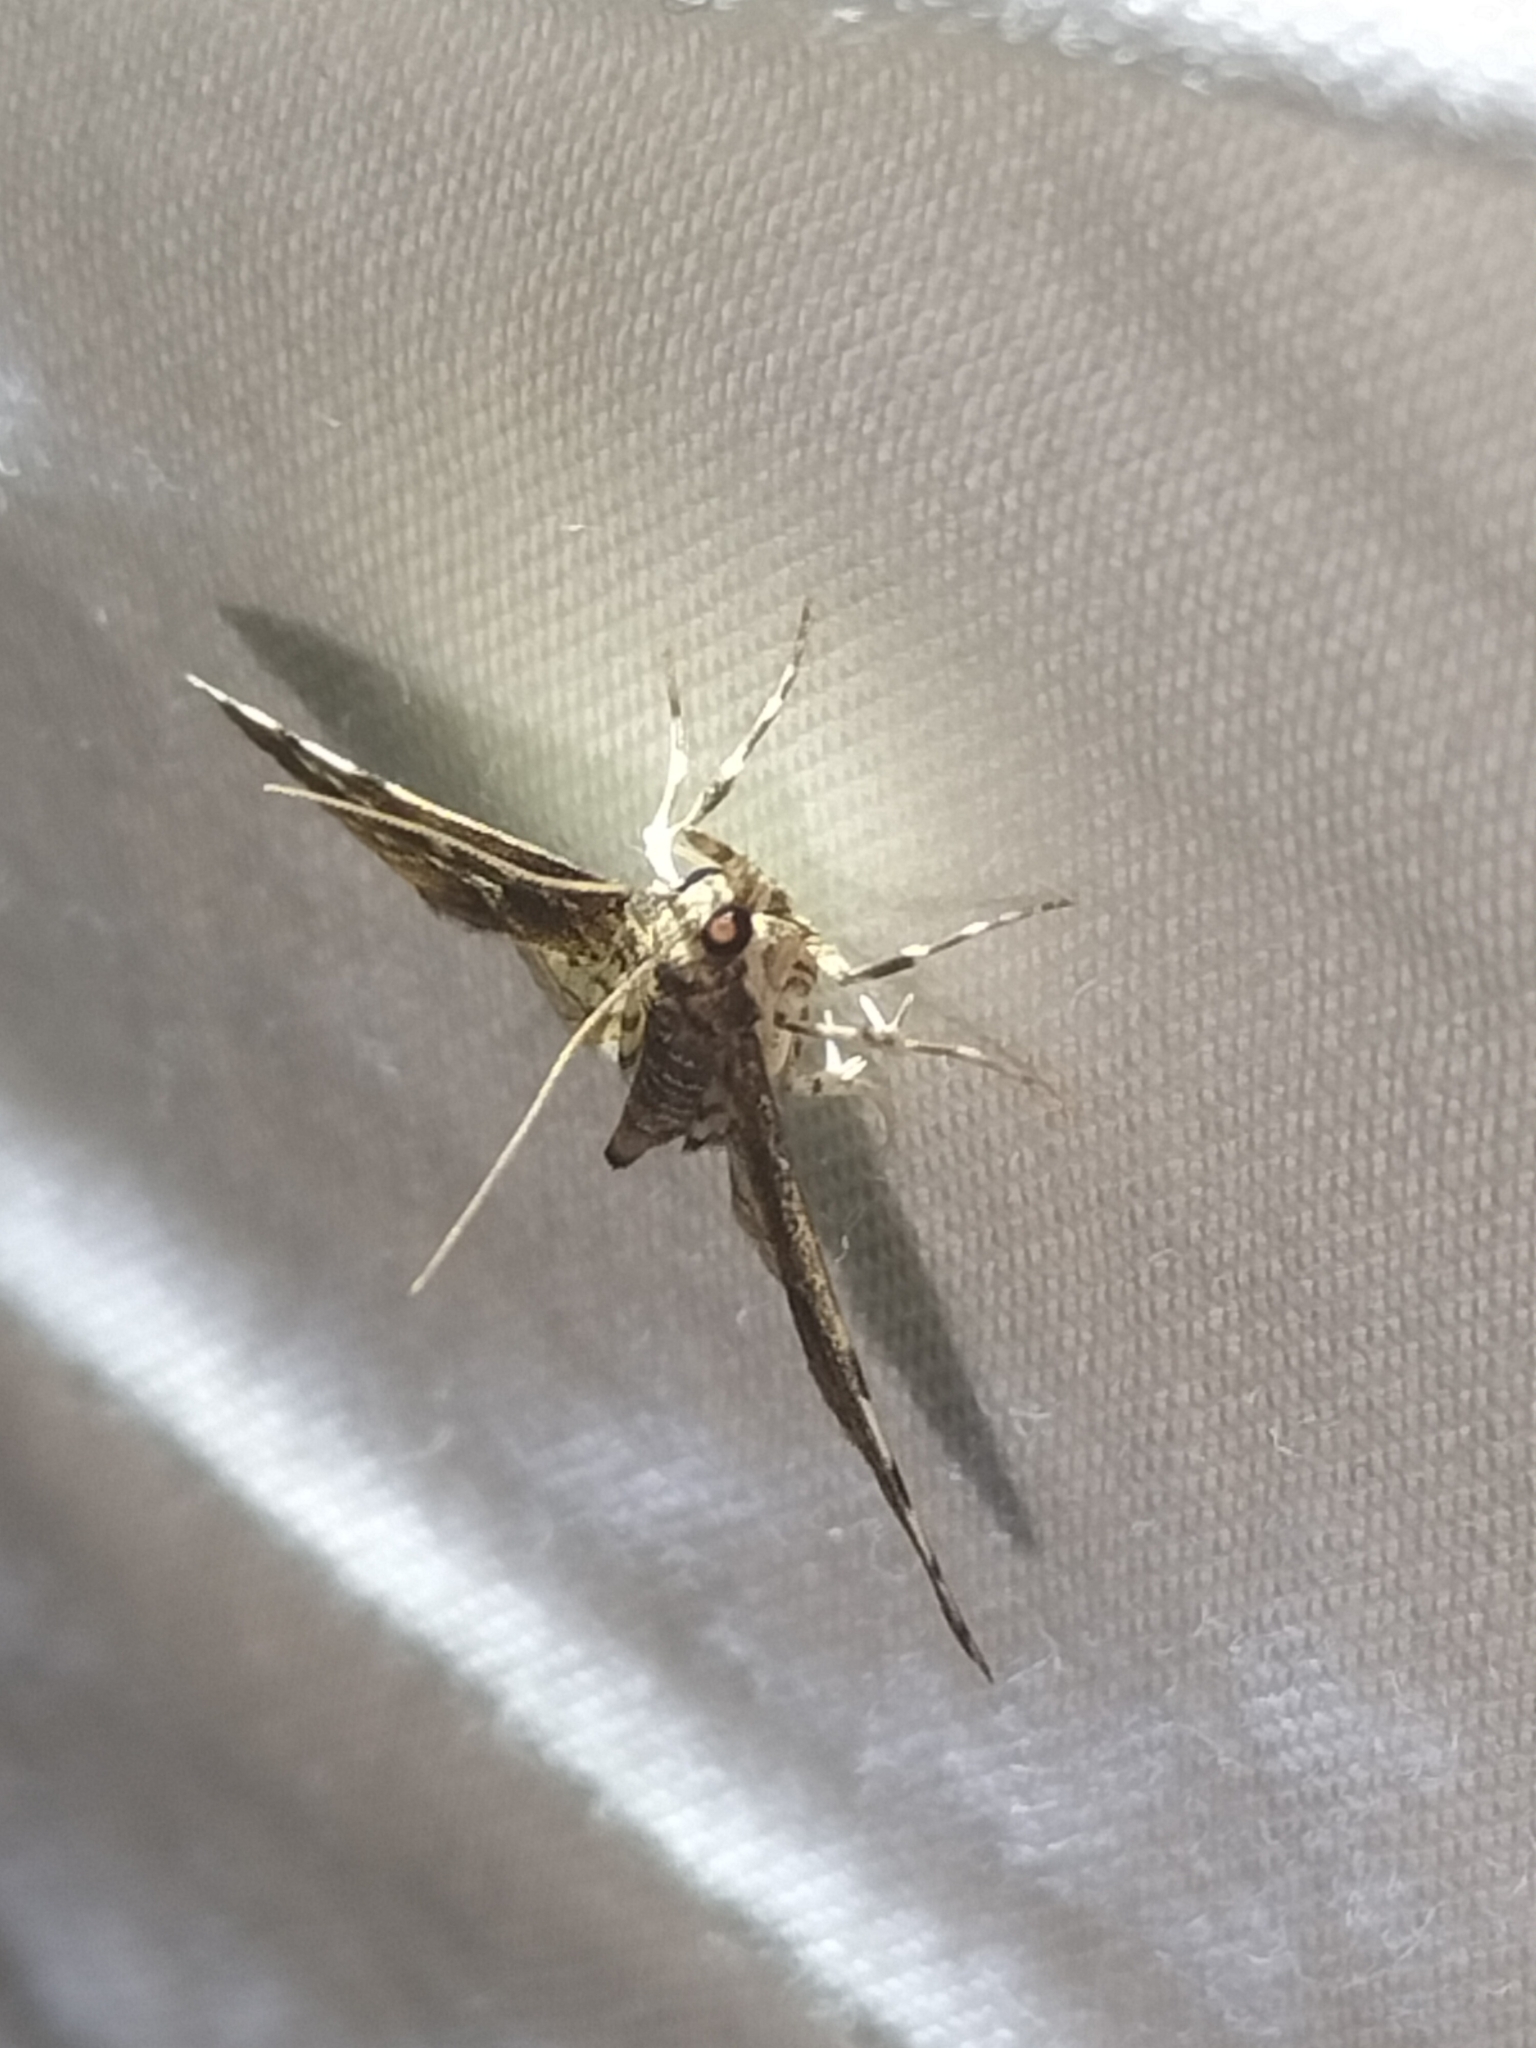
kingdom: Animalia
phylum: Arthropoda
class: Insecta
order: Lepidoptera
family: Crambidae
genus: Samea
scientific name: Samea multiplicalis
